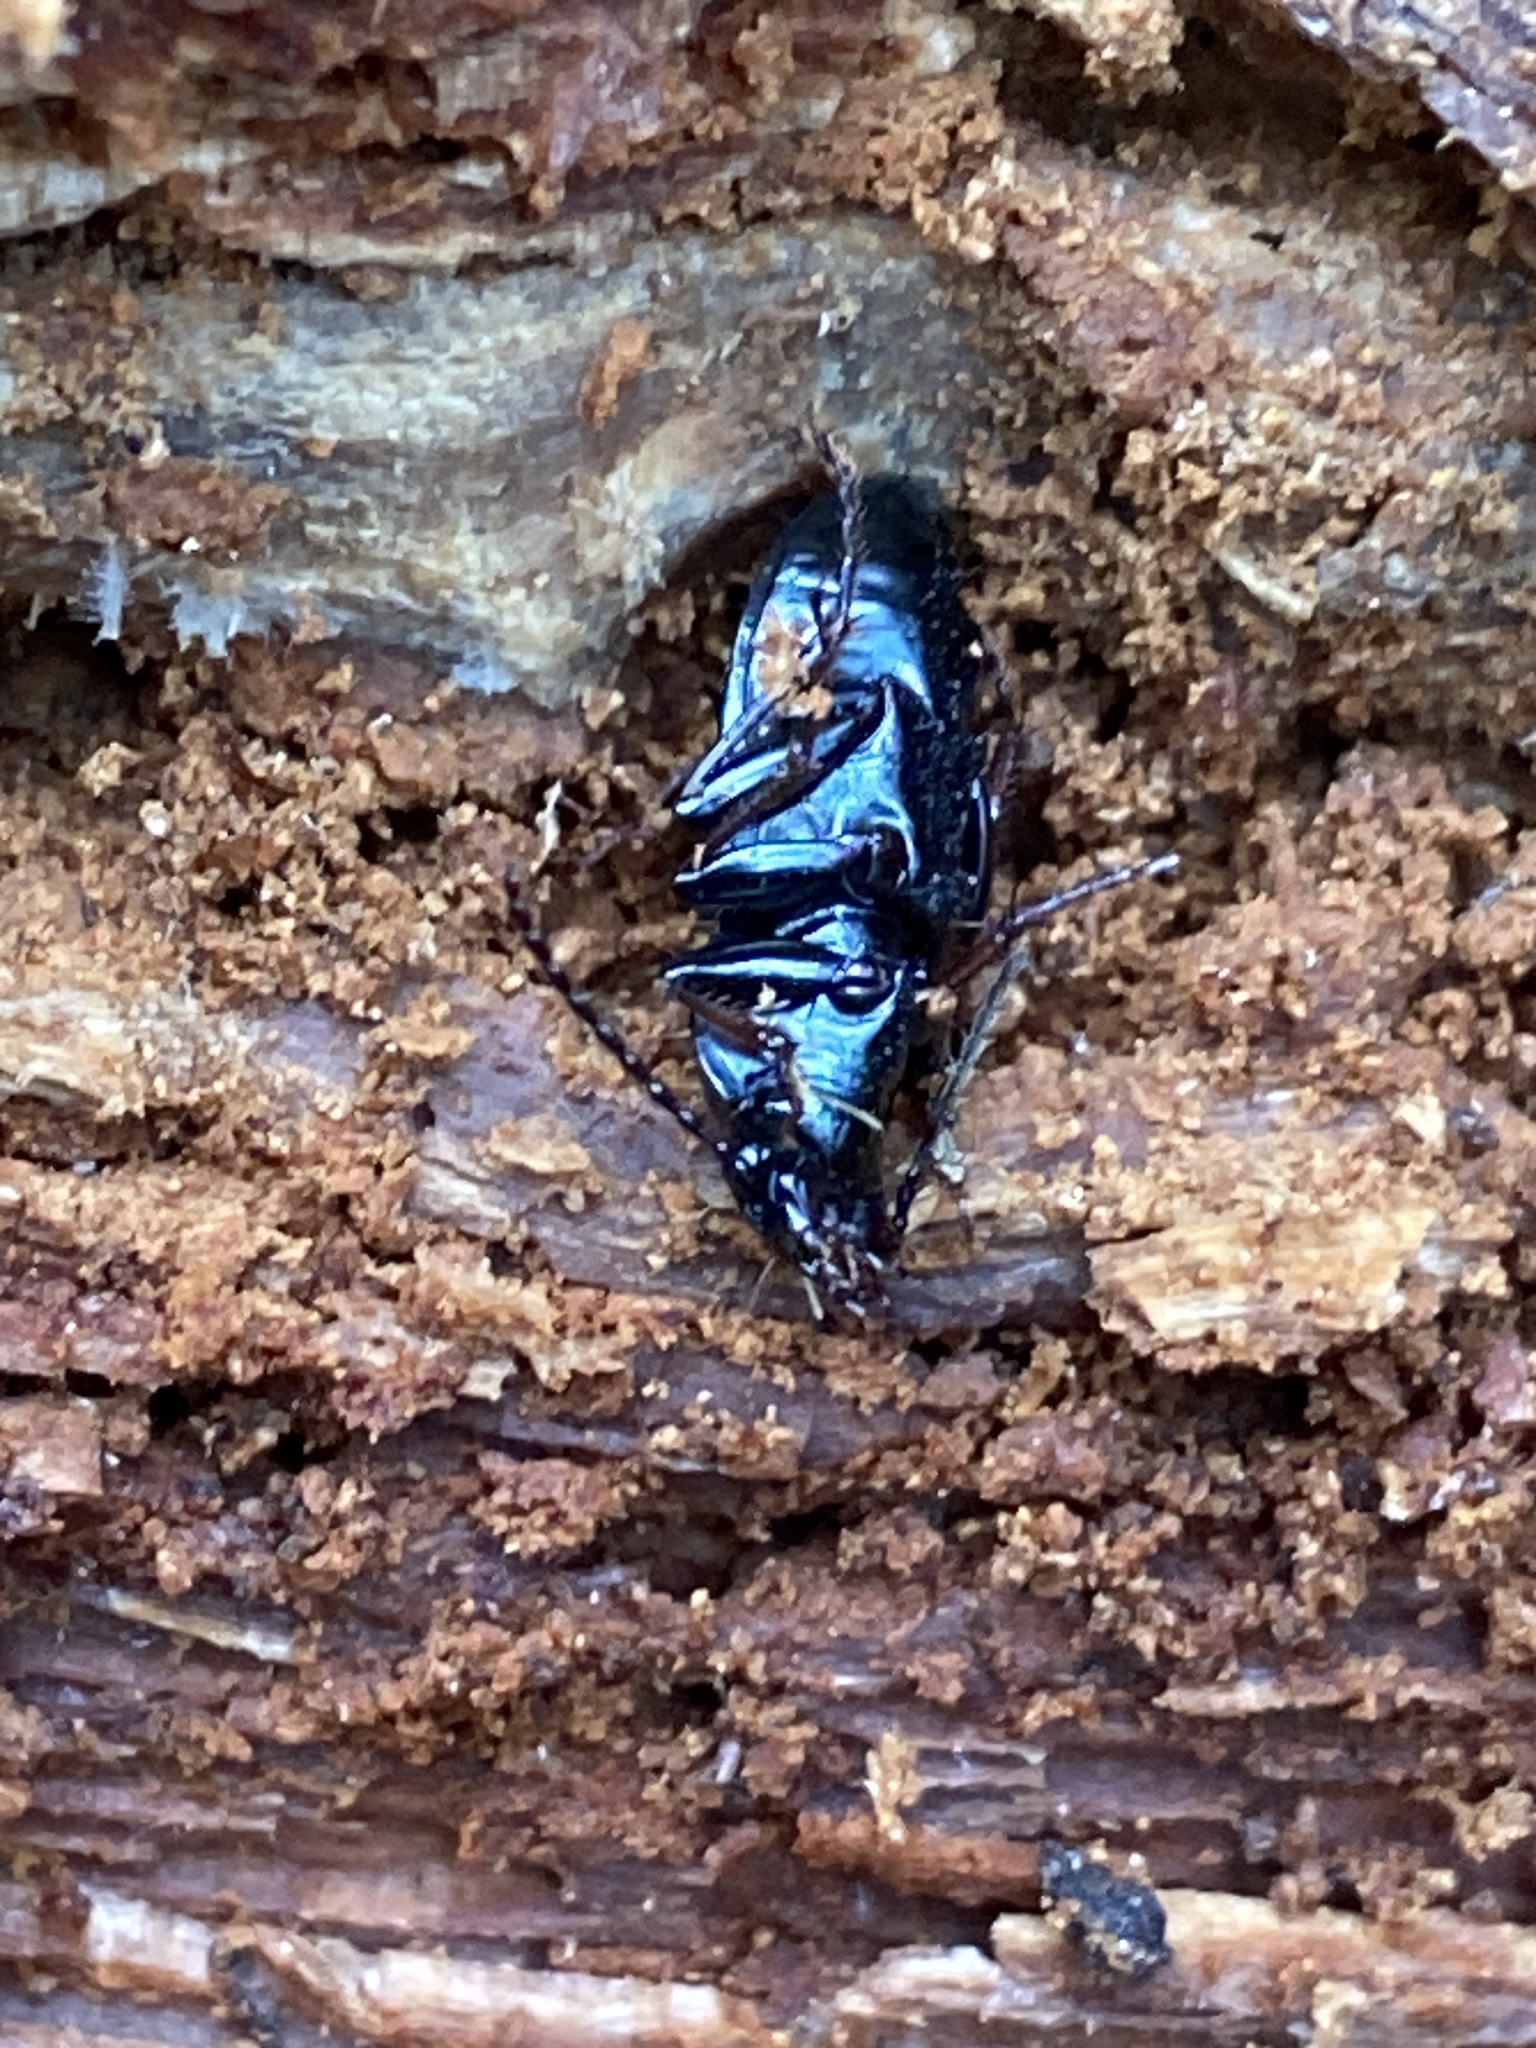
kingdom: Animalia
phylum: Arthropoda
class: Insecta
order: Coleoptera
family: Carabidae
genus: Pterostichus
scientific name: Pterostichus oblongopunctatus
